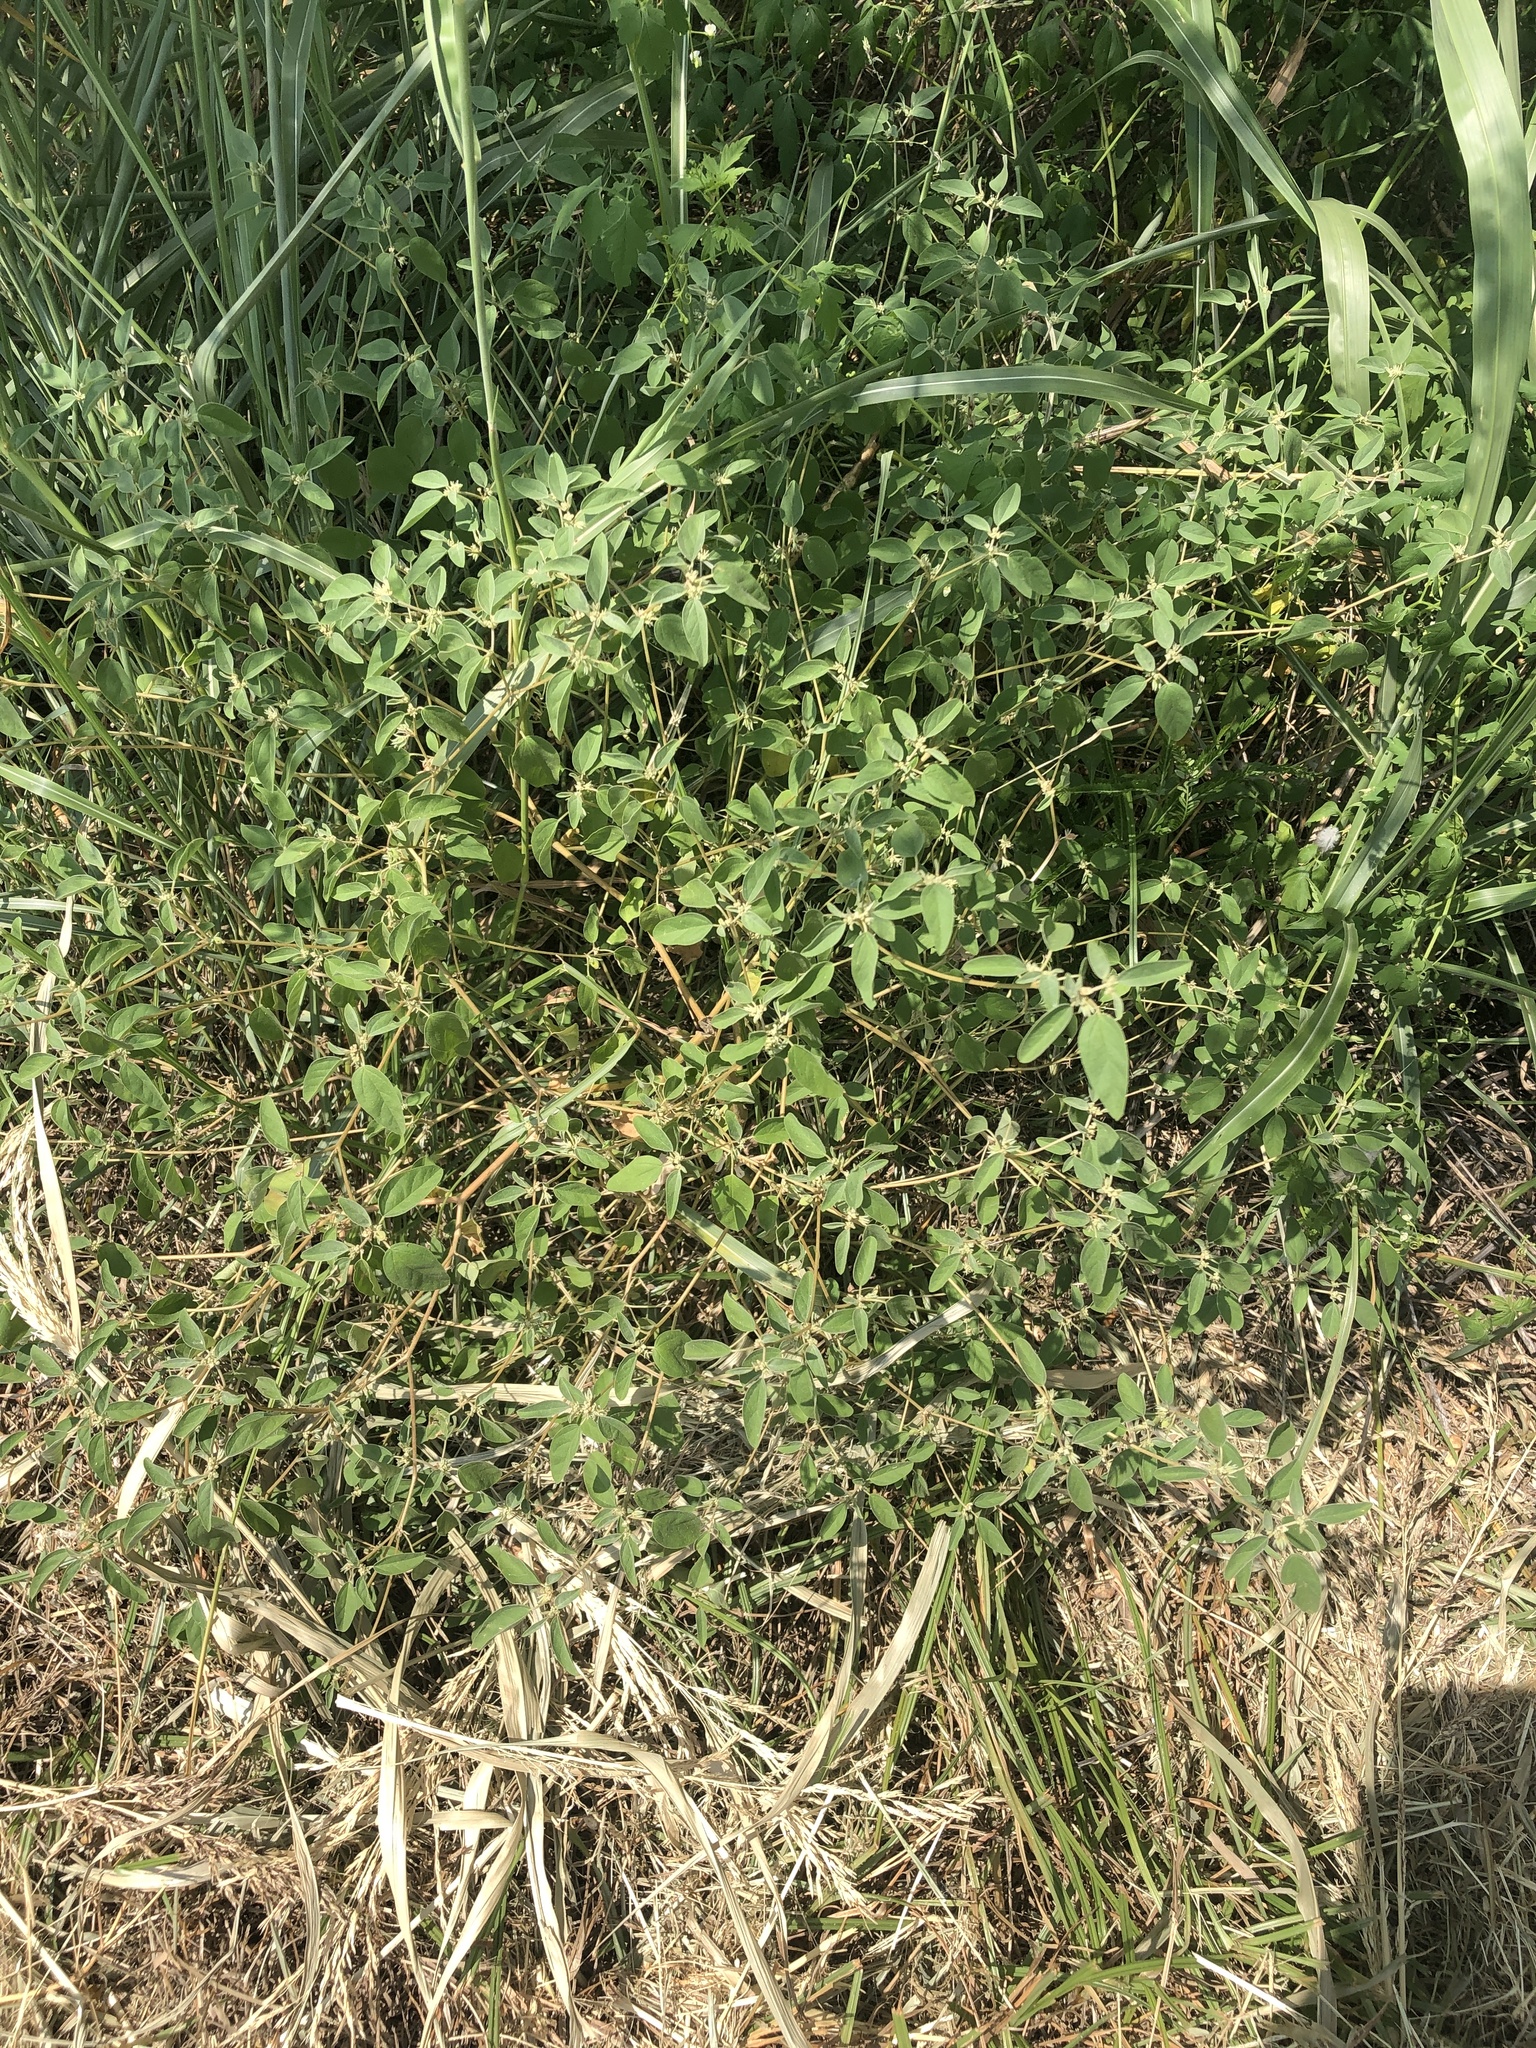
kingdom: Plantae
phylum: Tracheophyta
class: Magnoliopsida
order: Malpighiales
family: Euphorbiaceae
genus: Croton
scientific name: Croton monanthogynus
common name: One-seed croton
